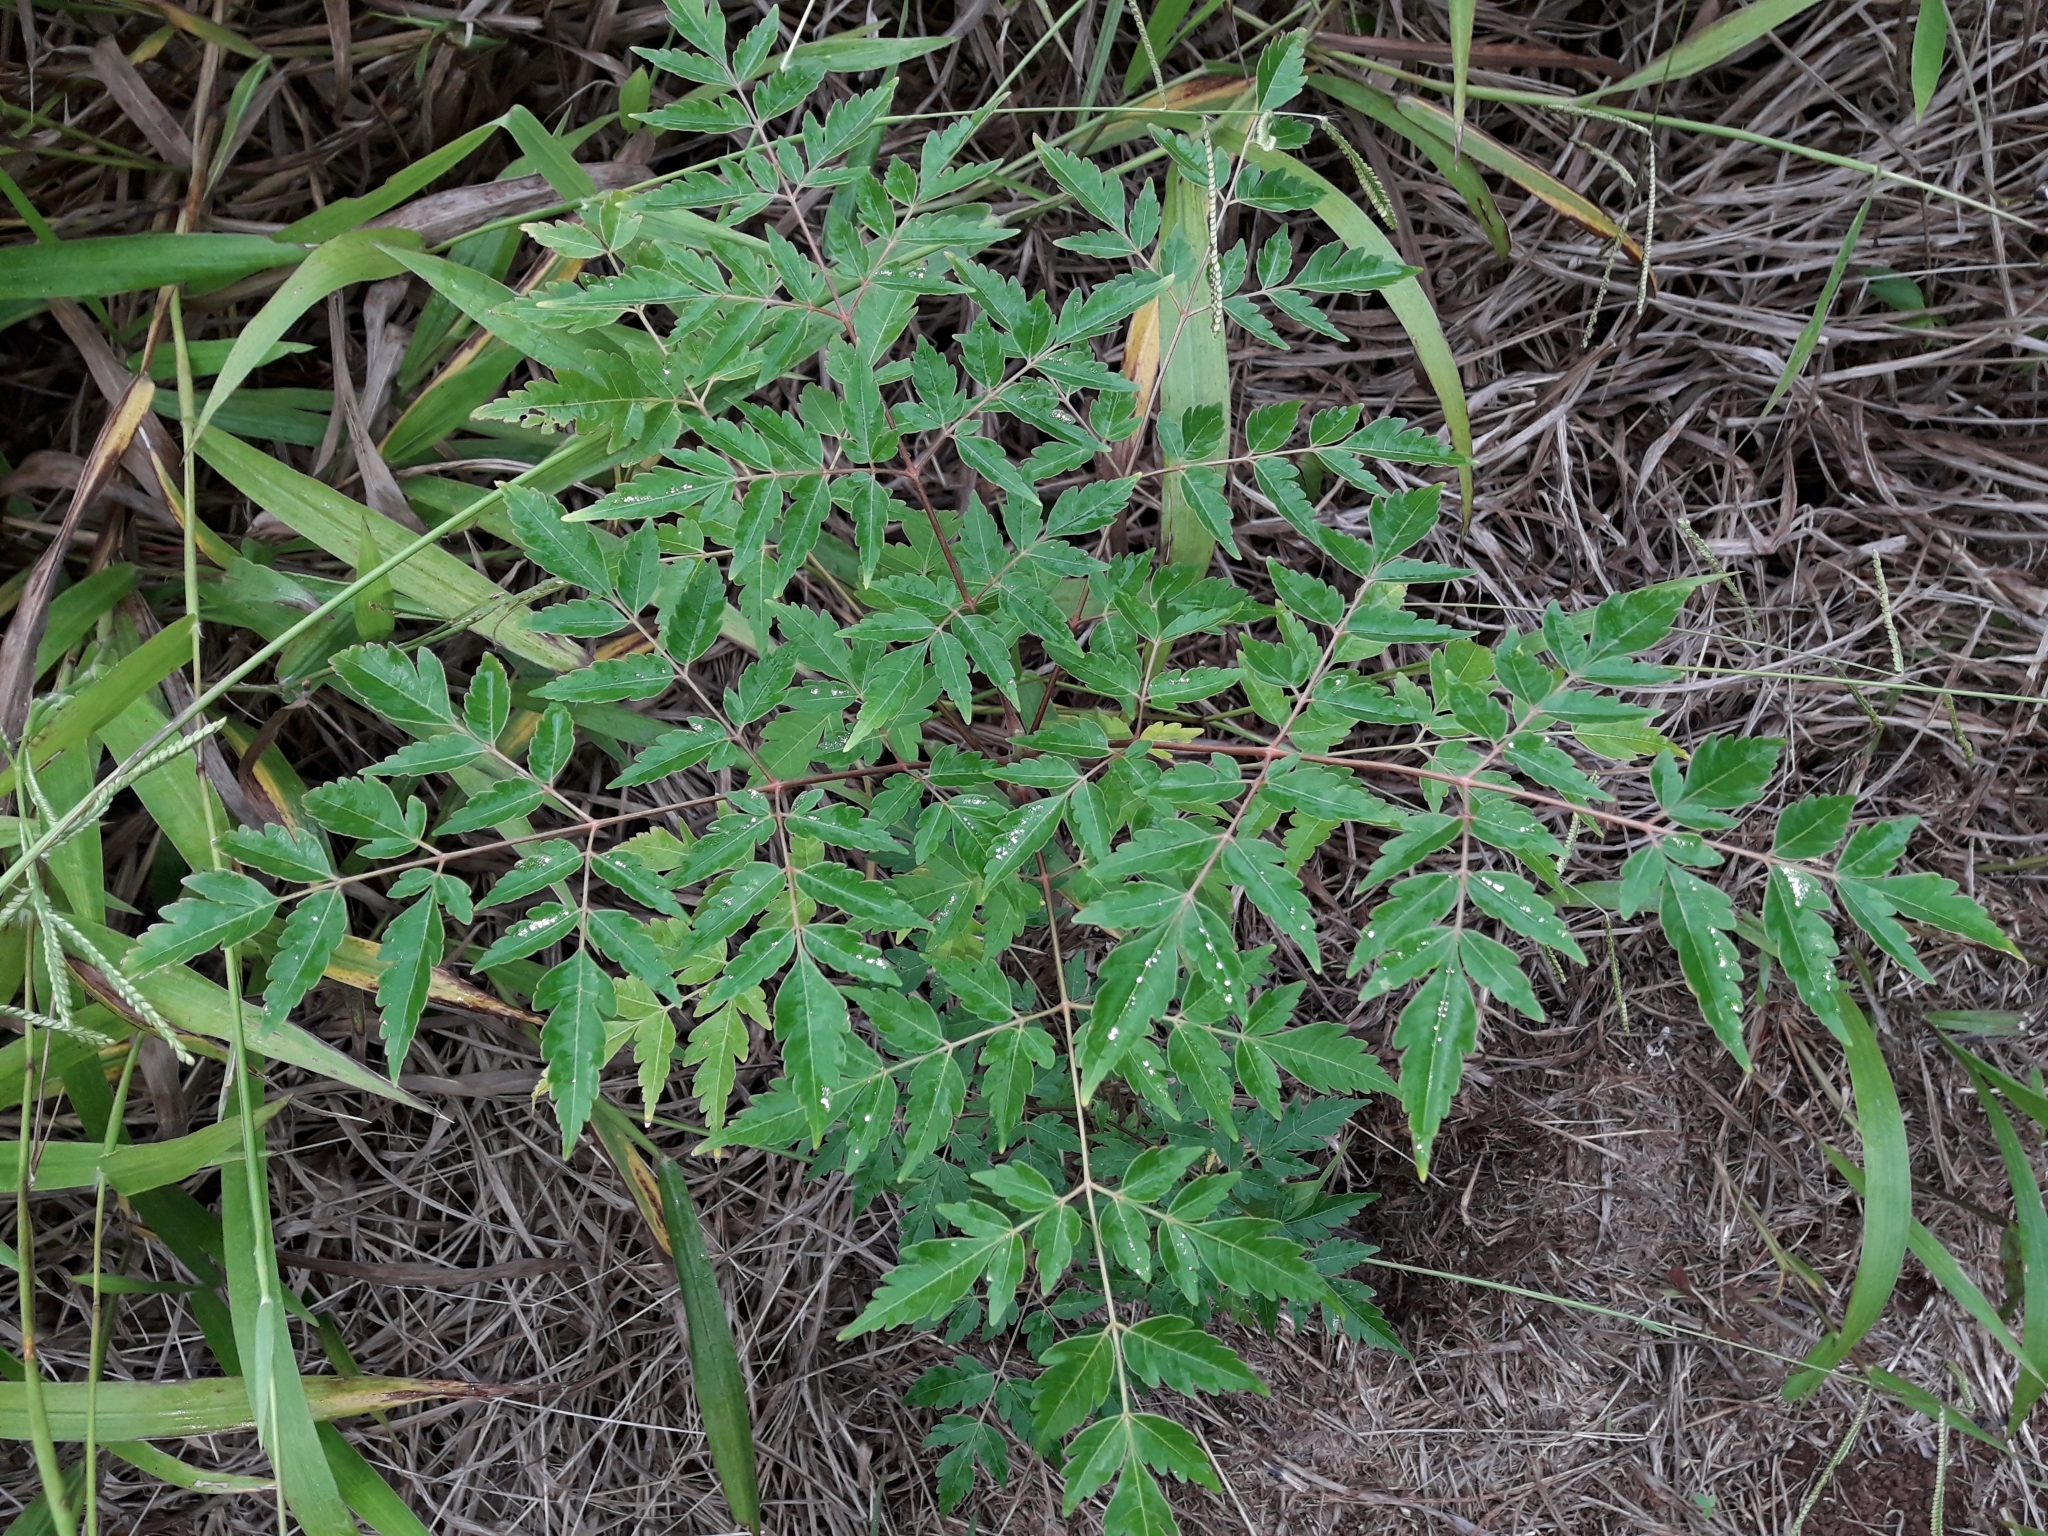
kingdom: Plantae
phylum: Tracheophyta
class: Magnoliopsida
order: Sapindales
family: Meliaceae
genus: Melia
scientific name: Melia azedarach
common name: Chinaberrytree
